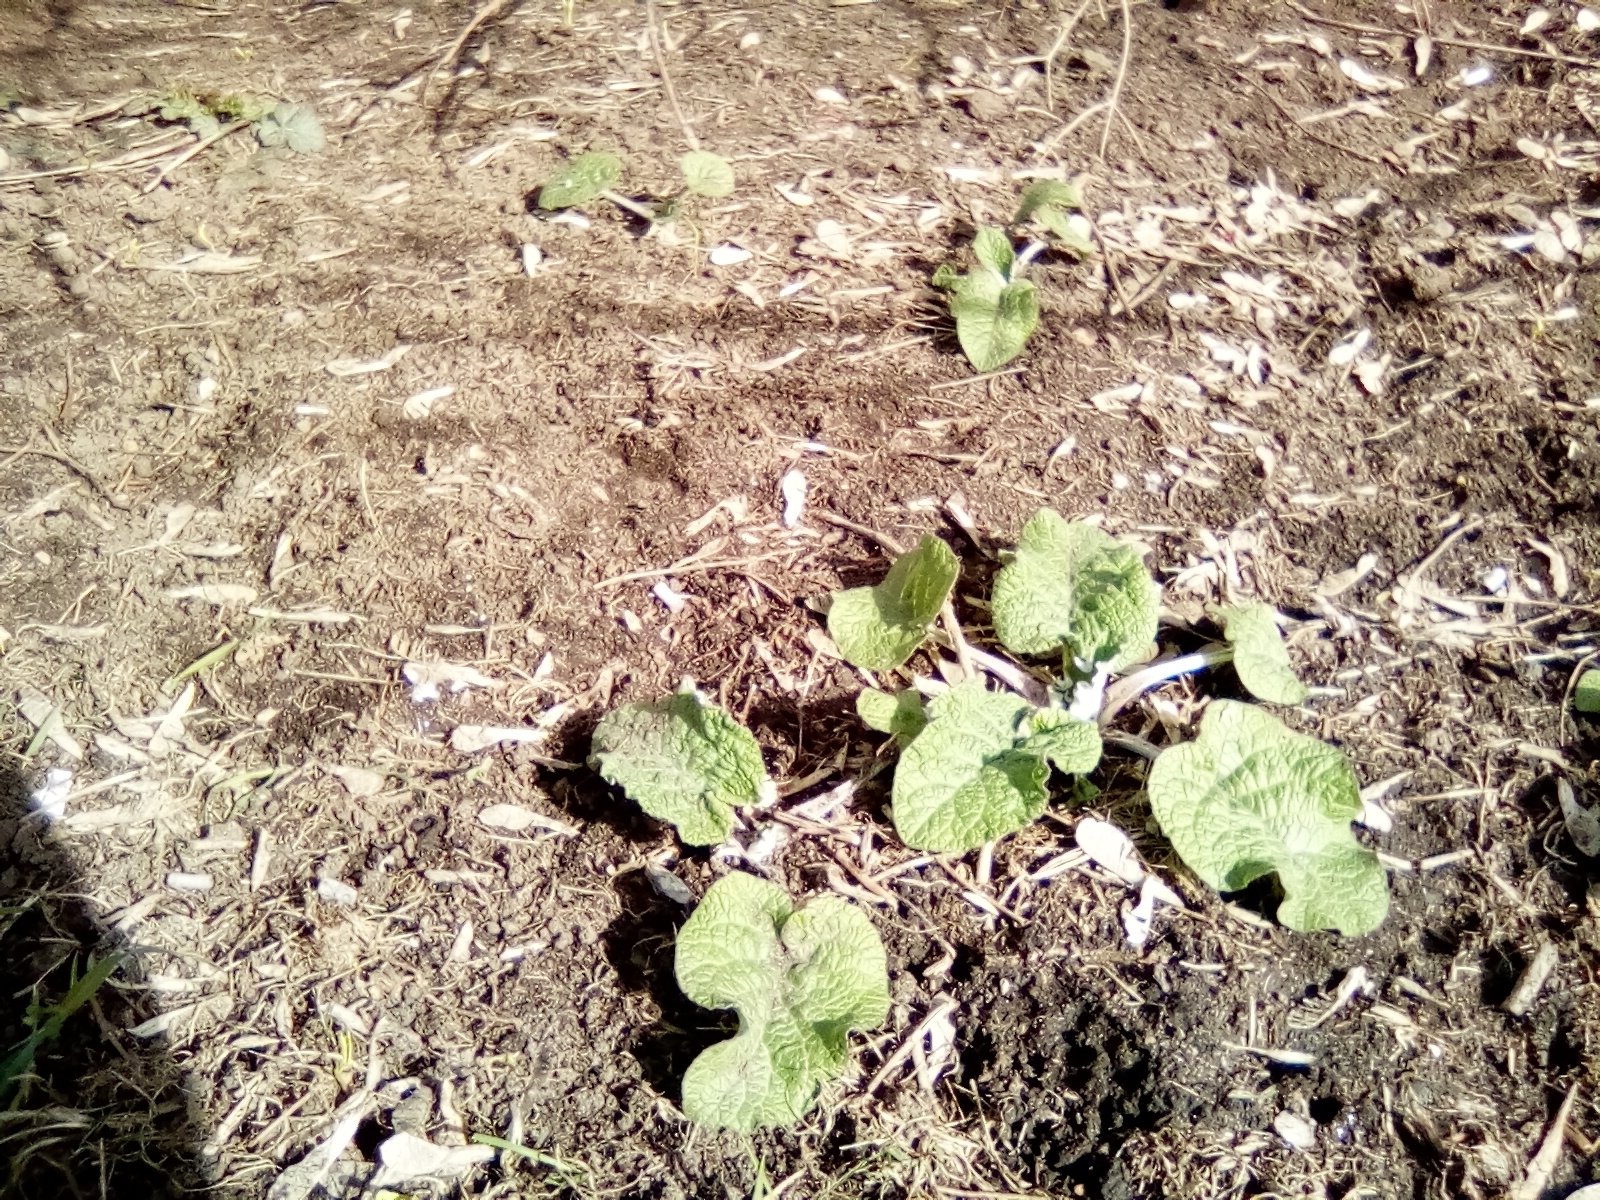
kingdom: Plantae
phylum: Tracheophyta
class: Magnoliopsida
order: Asterales
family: Asteraceae
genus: Arctium
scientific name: Arctium
